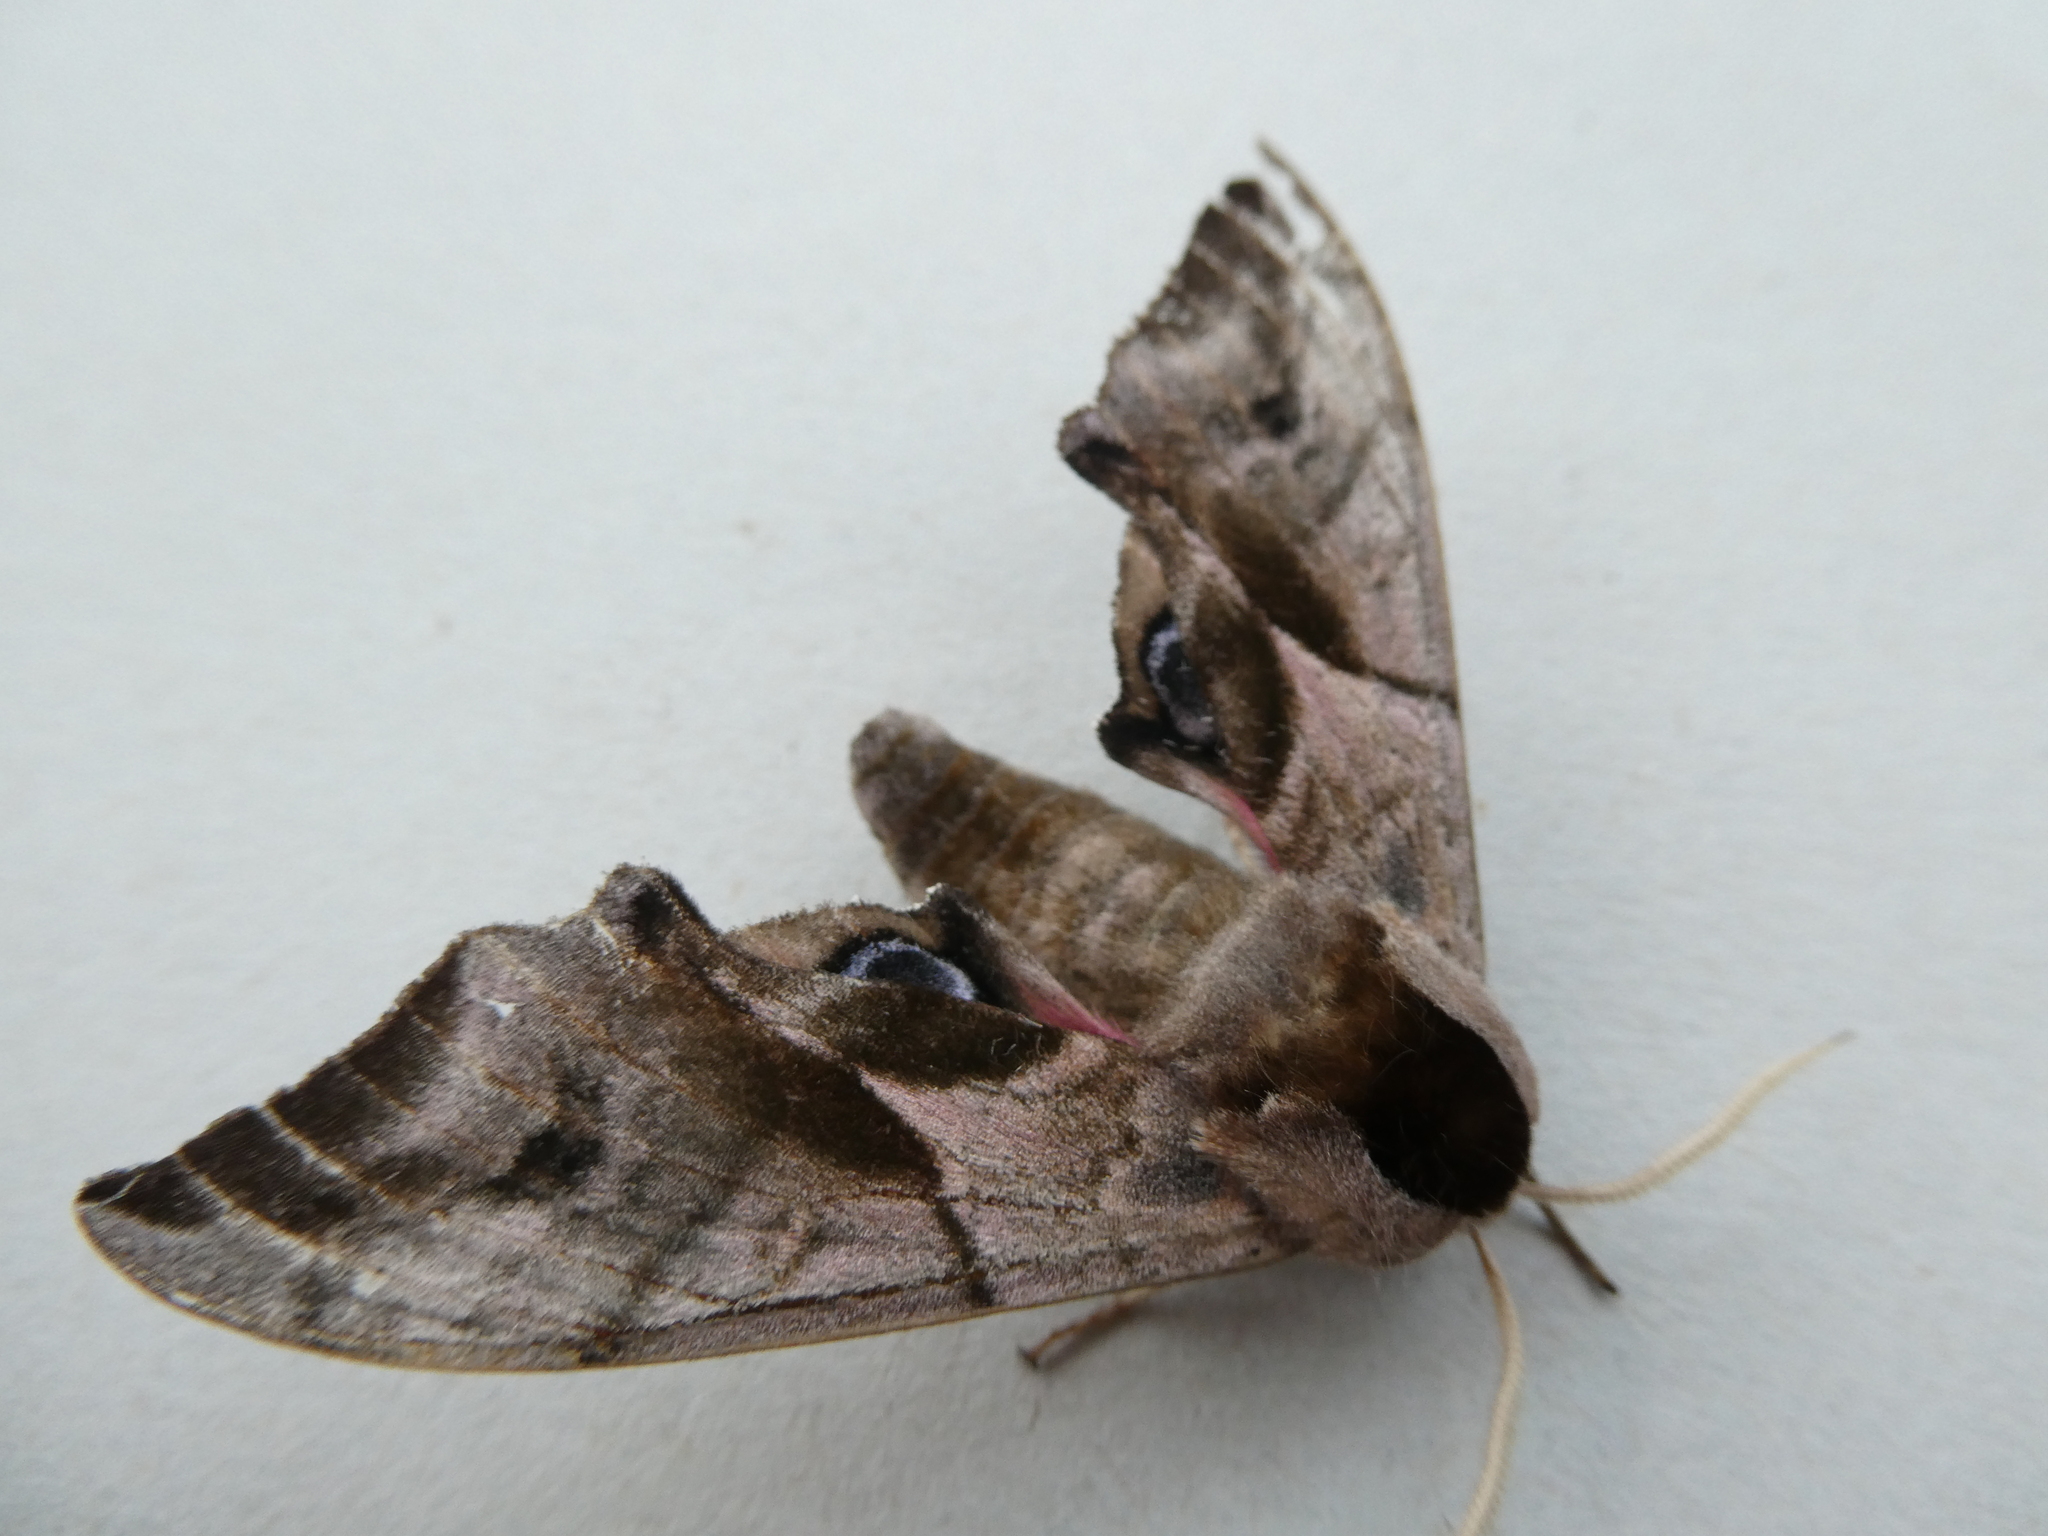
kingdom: Animalia
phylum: Arthropoda
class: Insecta
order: Lepidoptera
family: Sphingidae
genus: Smerinthus
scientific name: Smerinthus ocellata
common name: Eyed hawk-moth
